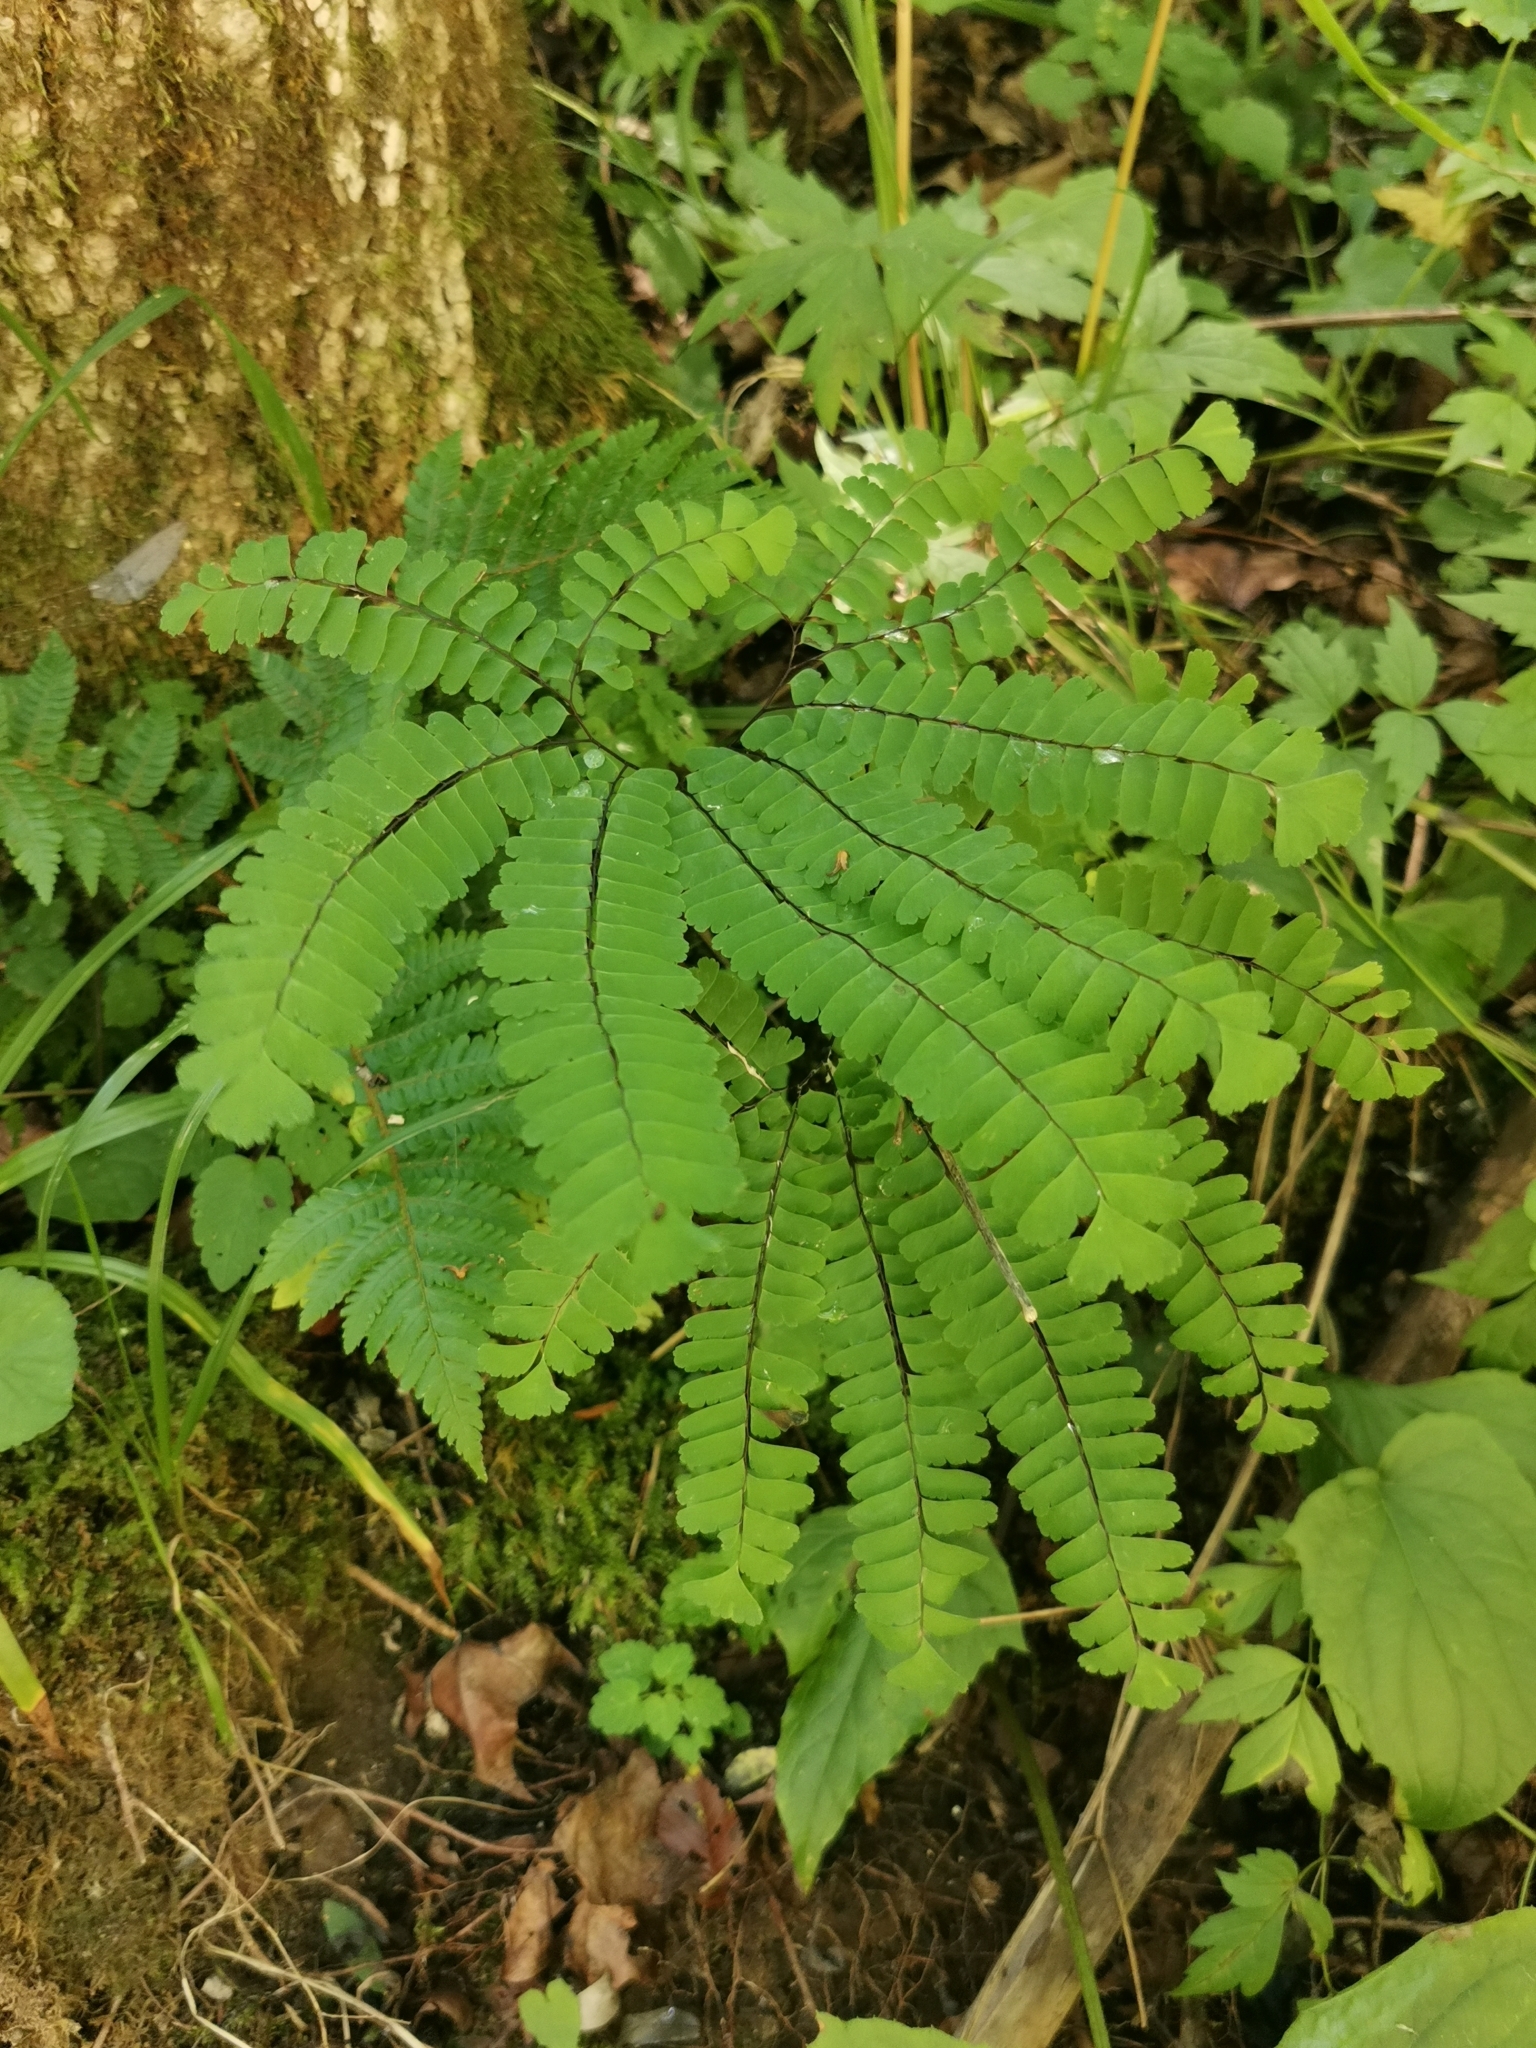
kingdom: Plantae
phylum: Tracheophyta
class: Polypodiopsida
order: Polypodiales
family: Pteridaceae
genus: Adiantum
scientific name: Adiantum pedatum
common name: Five-finger fern
